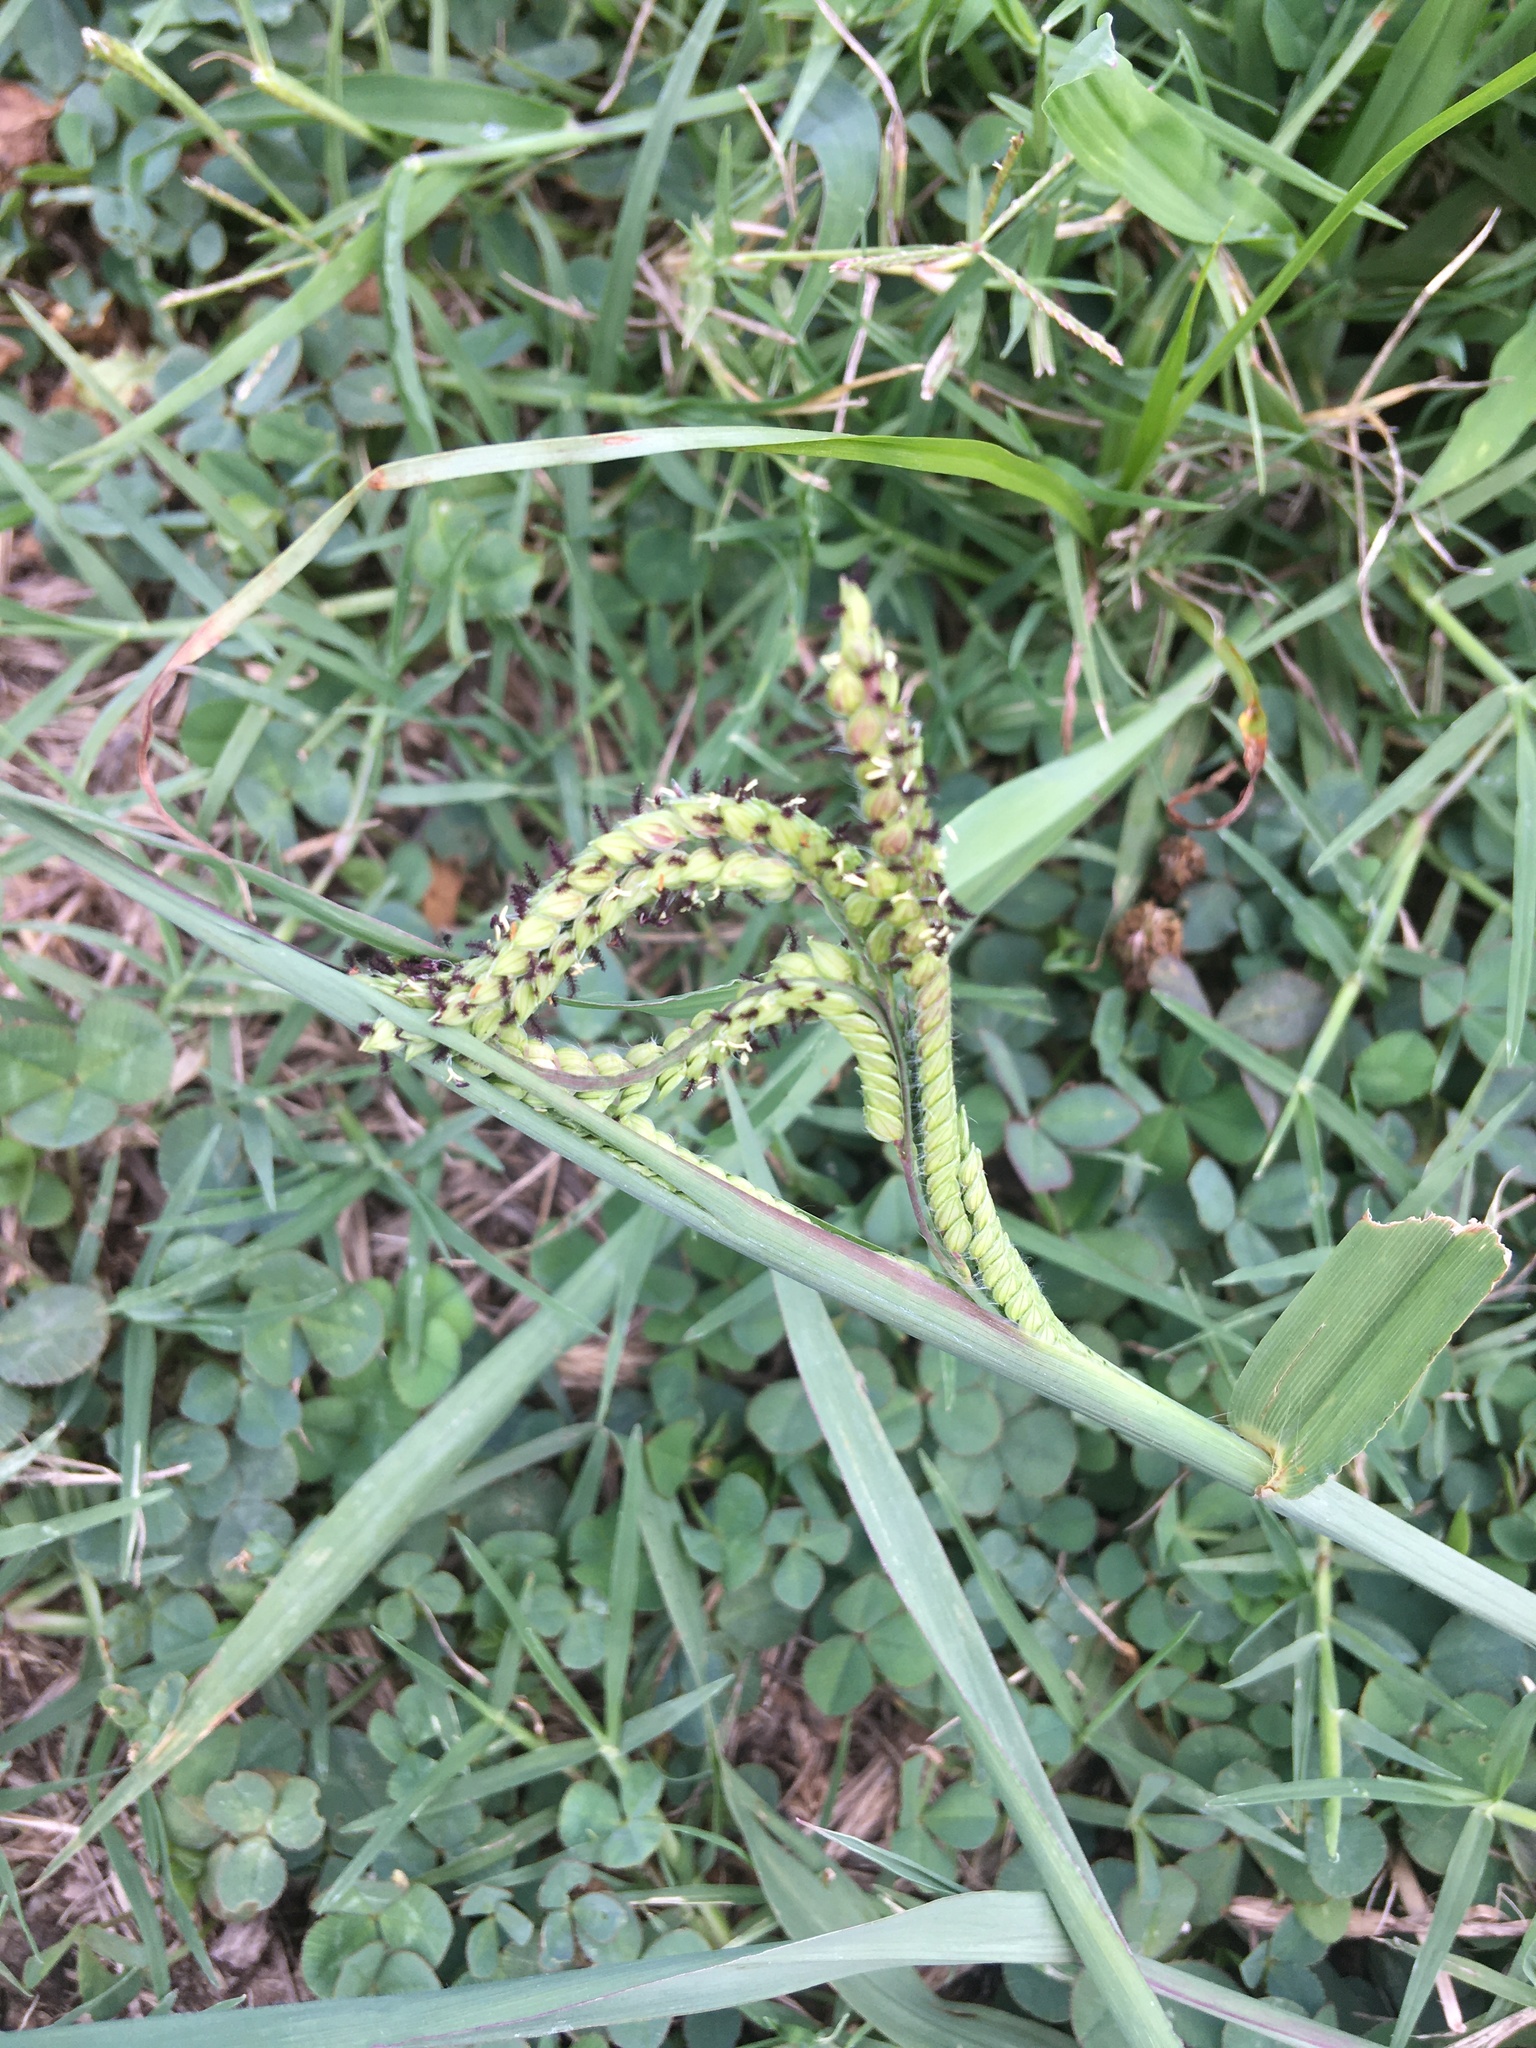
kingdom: Plantae
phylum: Tracheophyta
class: Liliopsida
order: Poales
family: Poaceae
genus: Paspalum
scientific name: Paspalum dilatatum
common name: Dallisgrass
